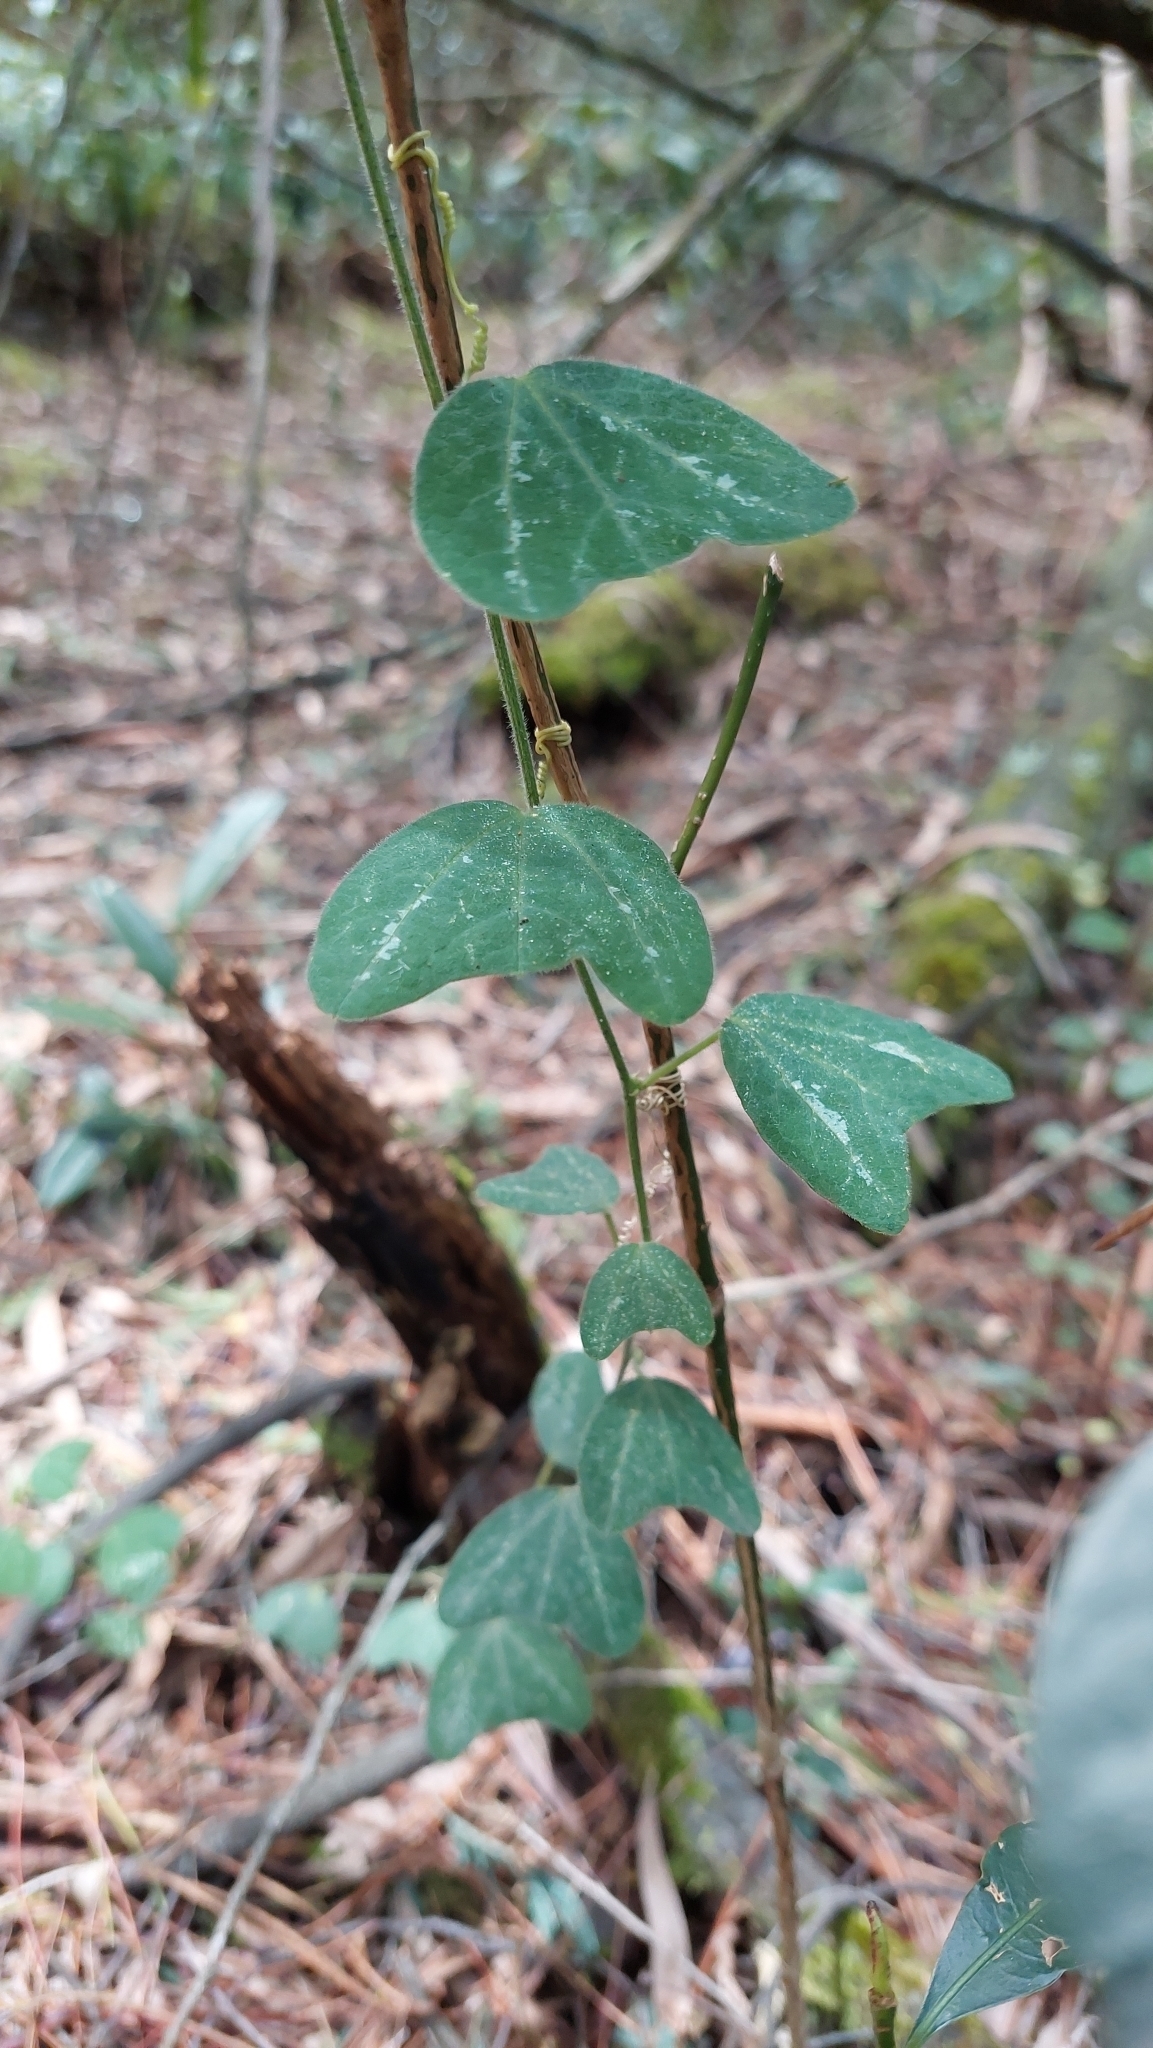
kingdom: Plantae
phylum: Tracheophyta
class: Magnoliopsida
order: Malpighiales
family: Passifloraceae
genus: Passiflora
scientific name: Passiflora bogotensis
